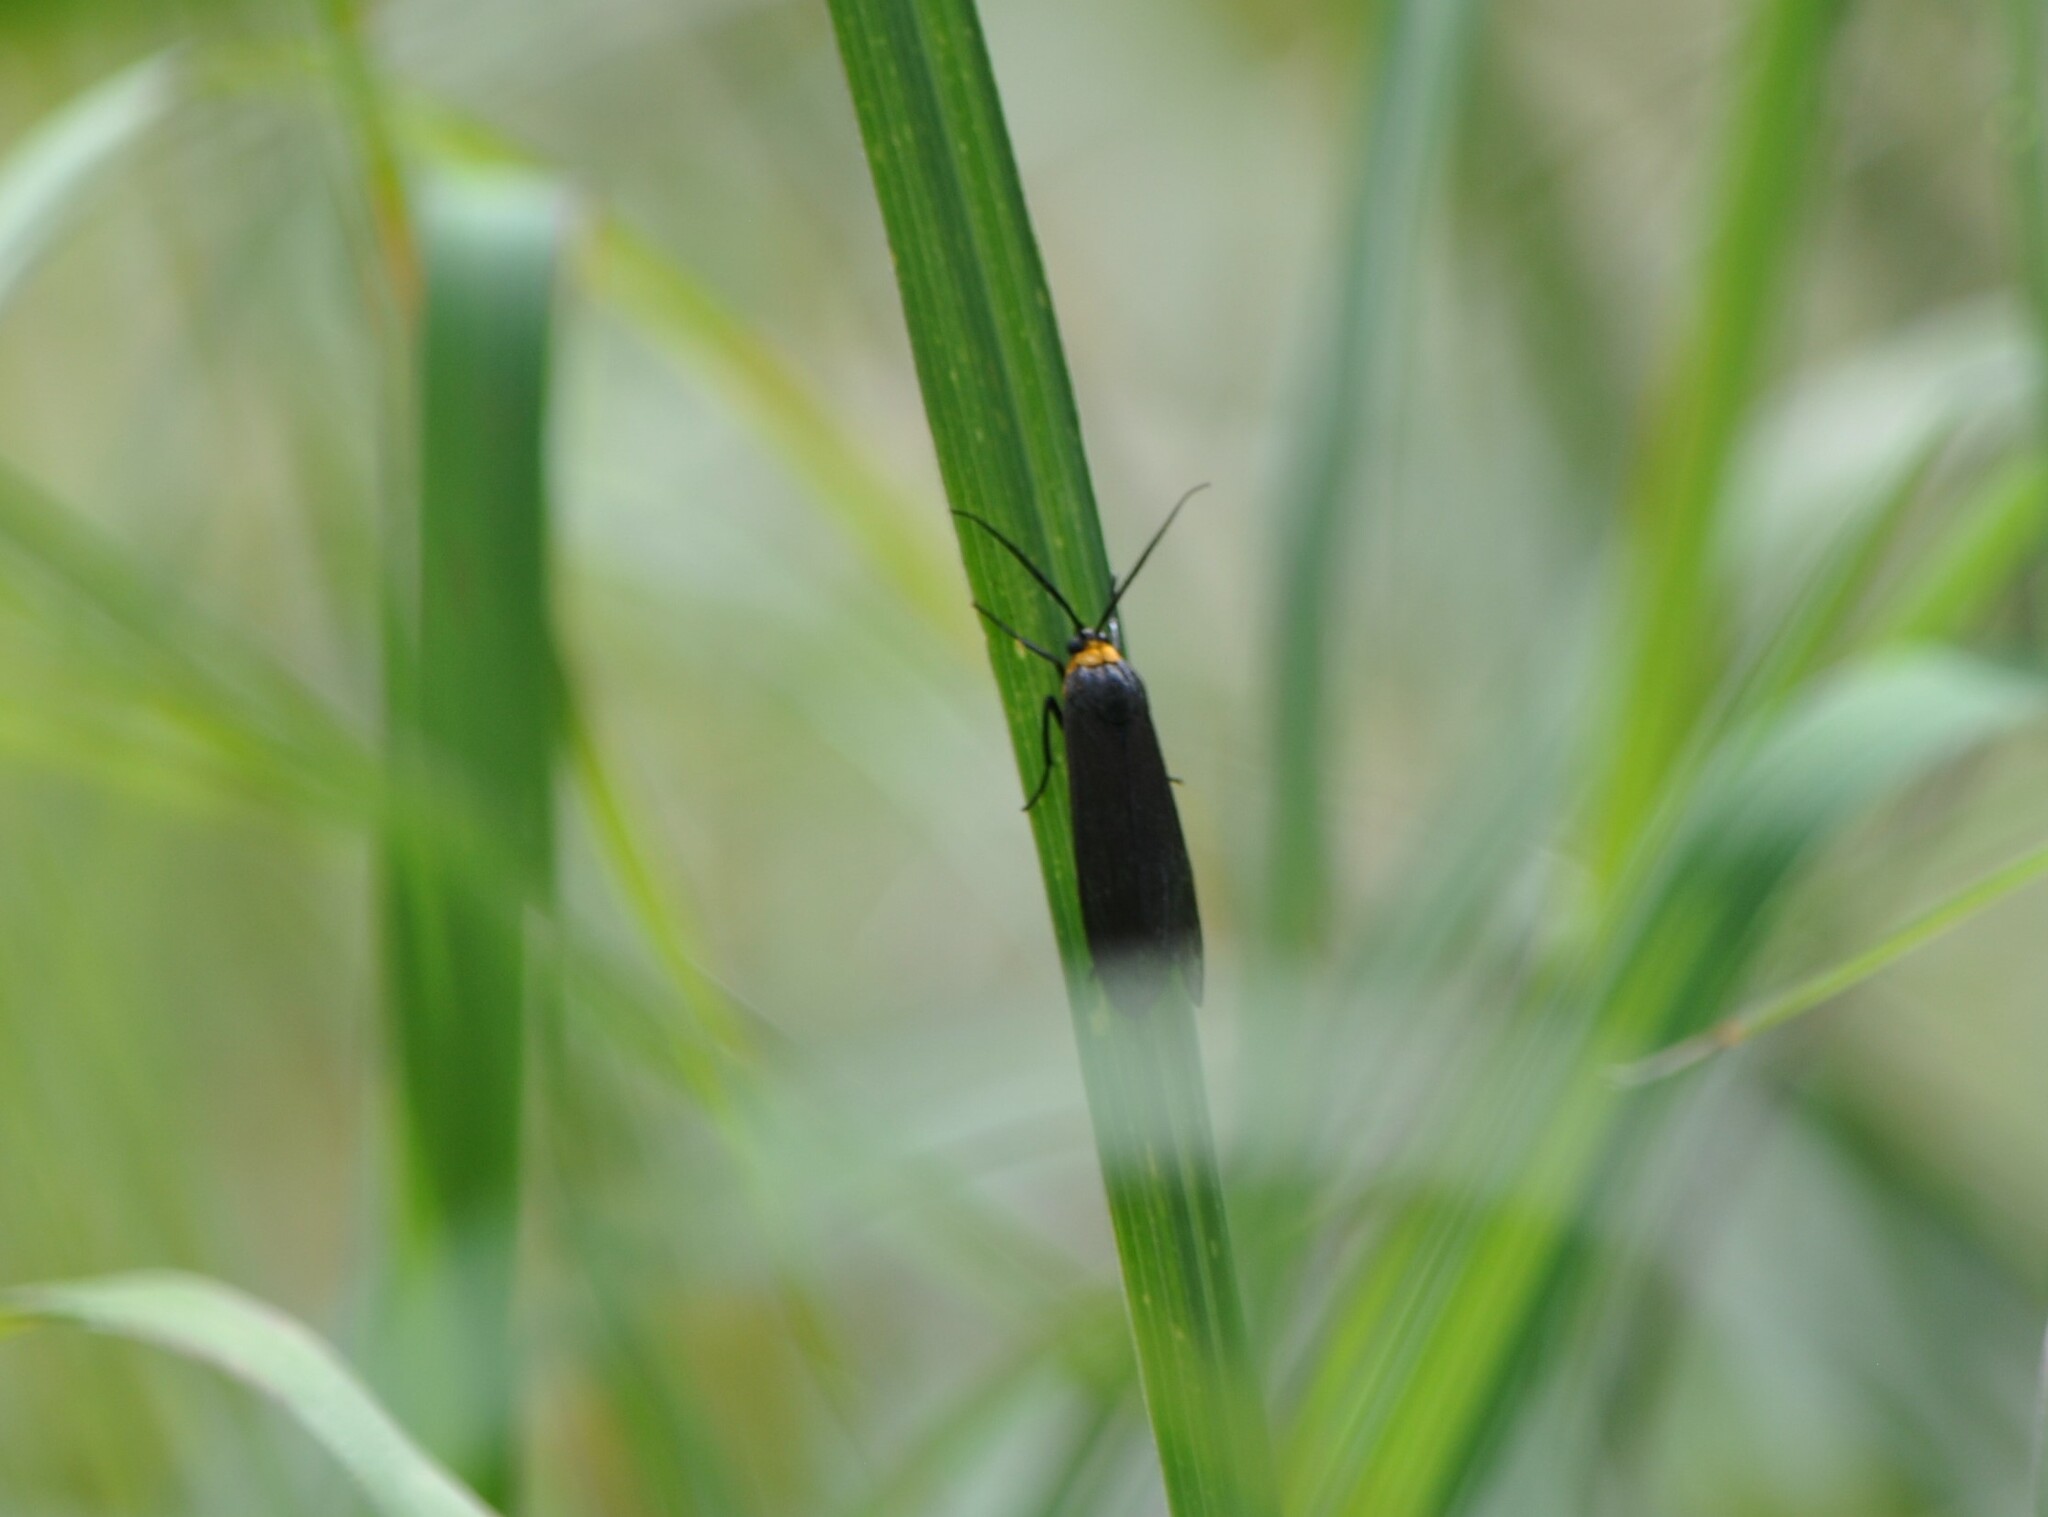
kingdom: Animalia
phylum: Arthropoda
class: Insecta
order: Lepidoptera
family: Erebidae
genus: Cisseps
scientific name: Cisseps fulvicollis
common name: Yellow-collared scape moth
